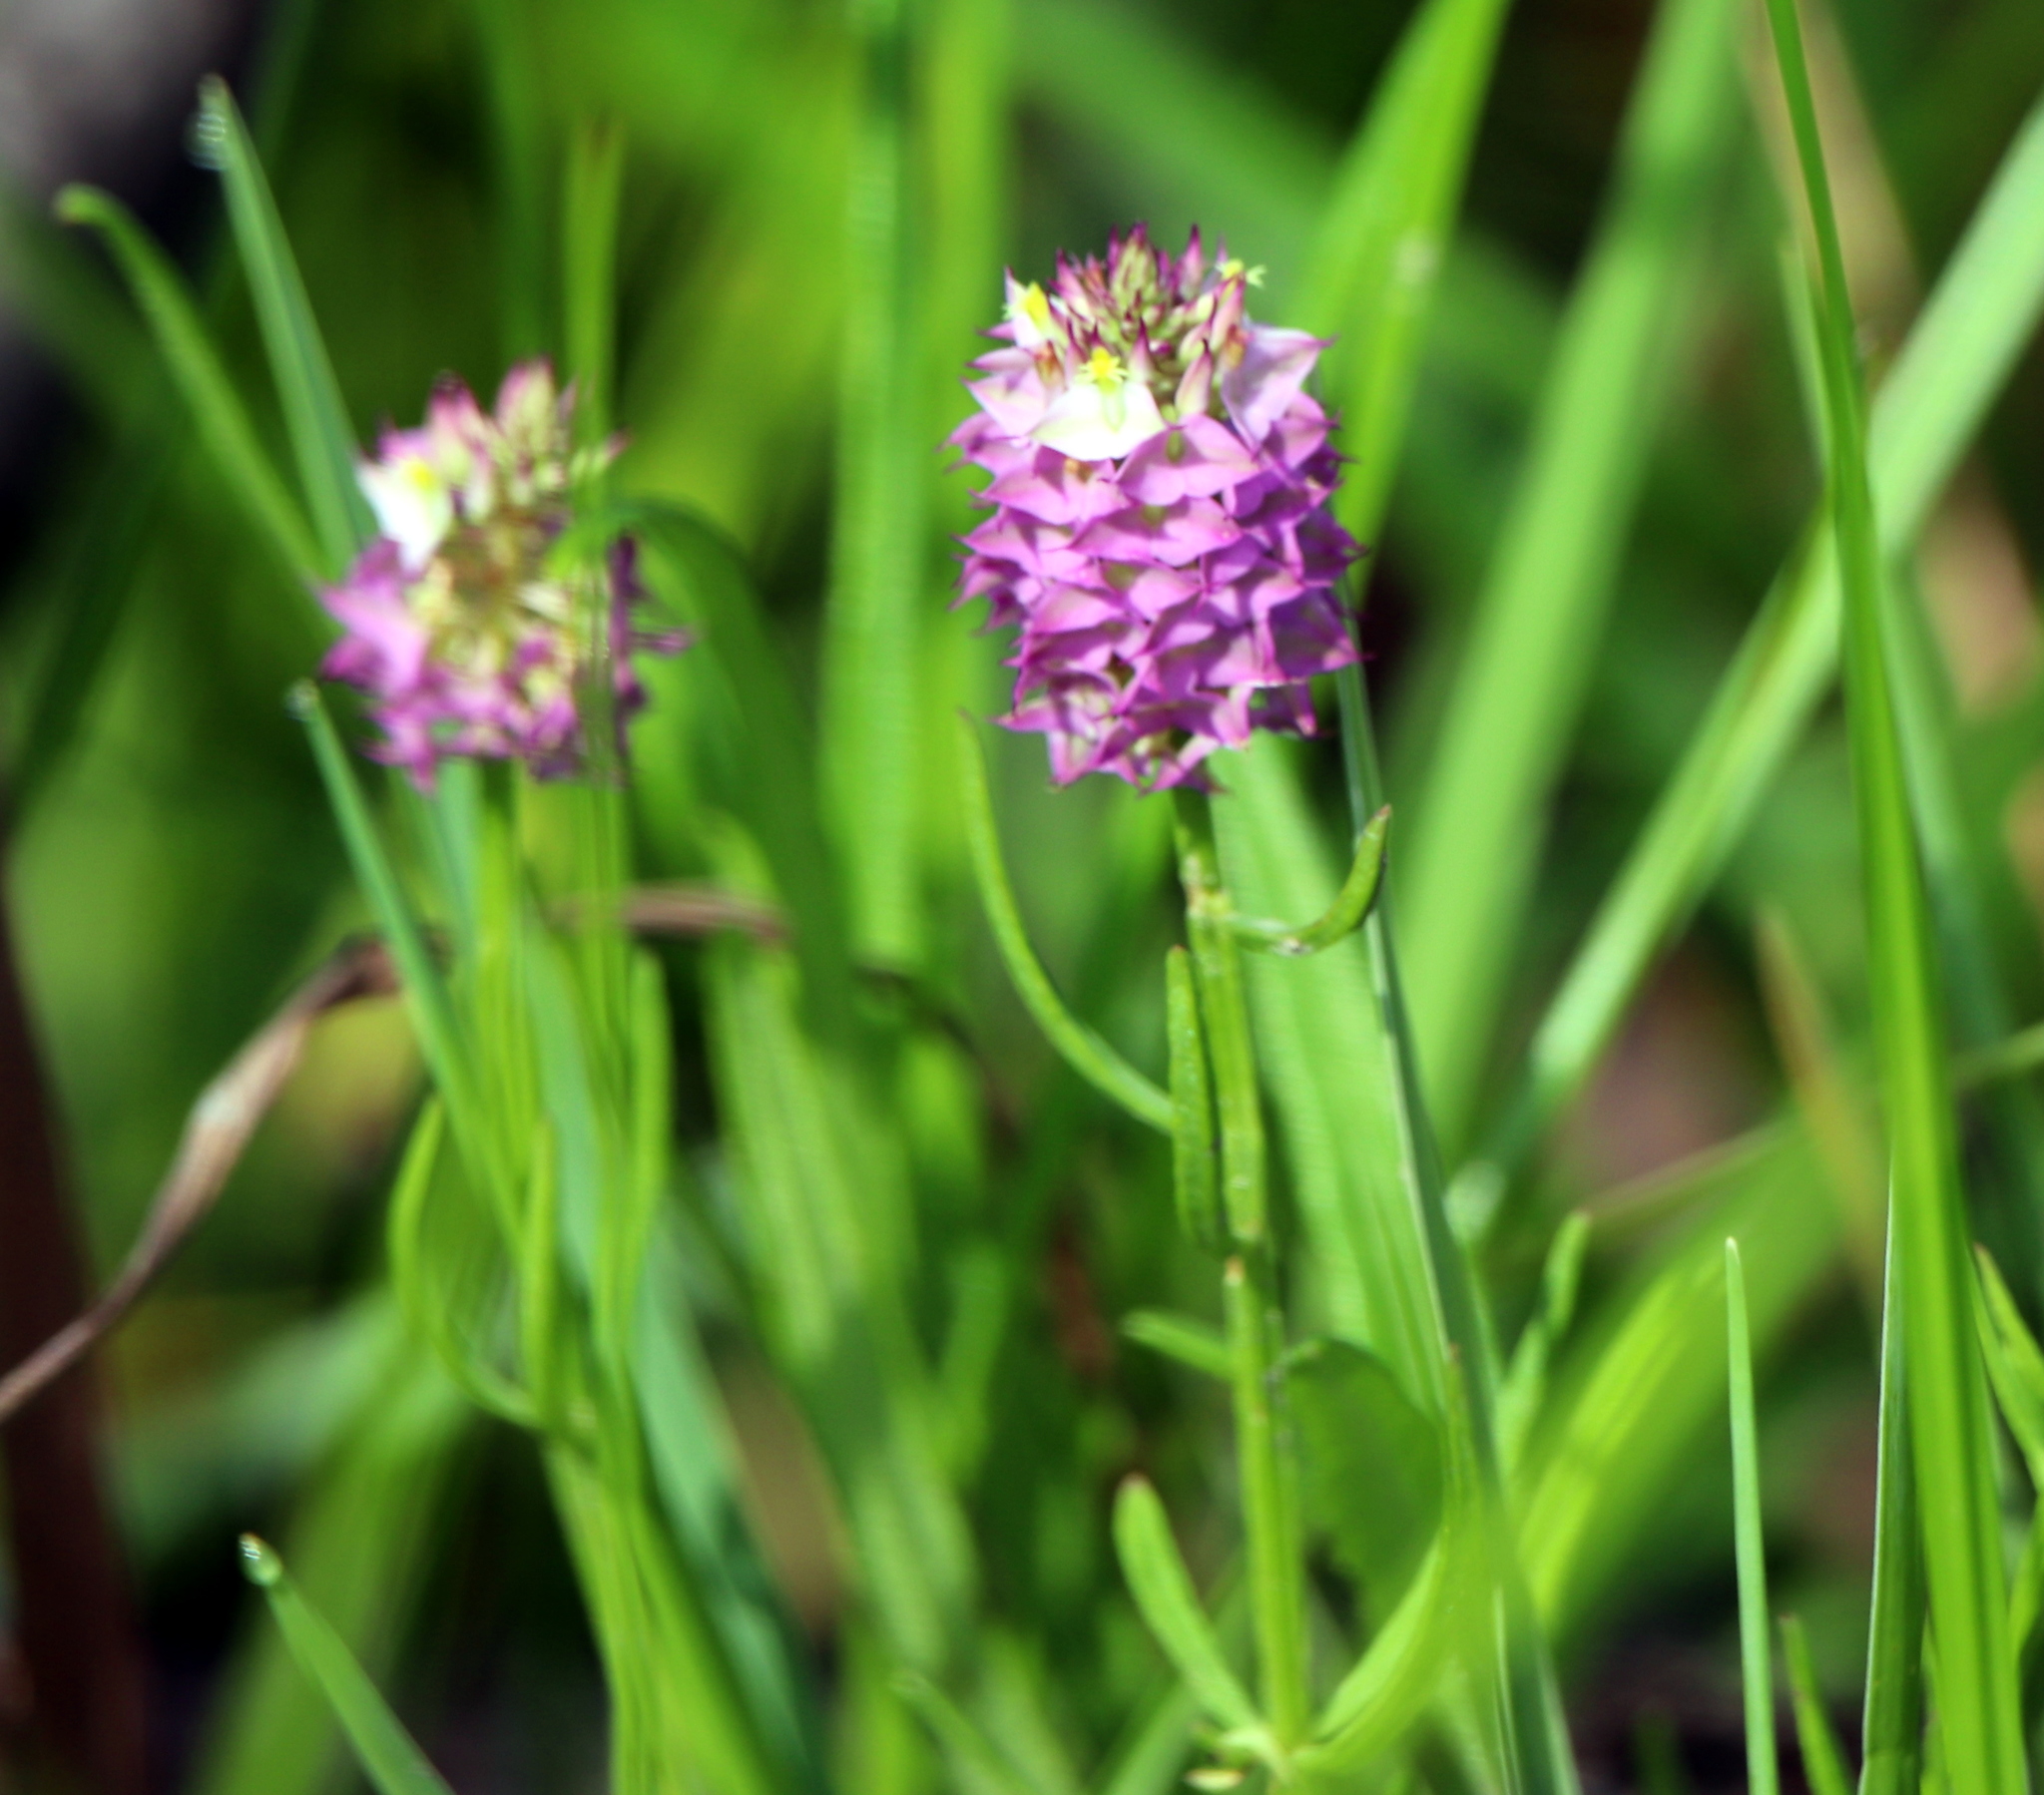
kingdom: Plantae
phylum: Tracheophyta
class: Magnoliopsida
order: Fabales
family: Polygalaceae
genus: Polygala
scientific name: Polygala cruciata
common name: Drumheads
